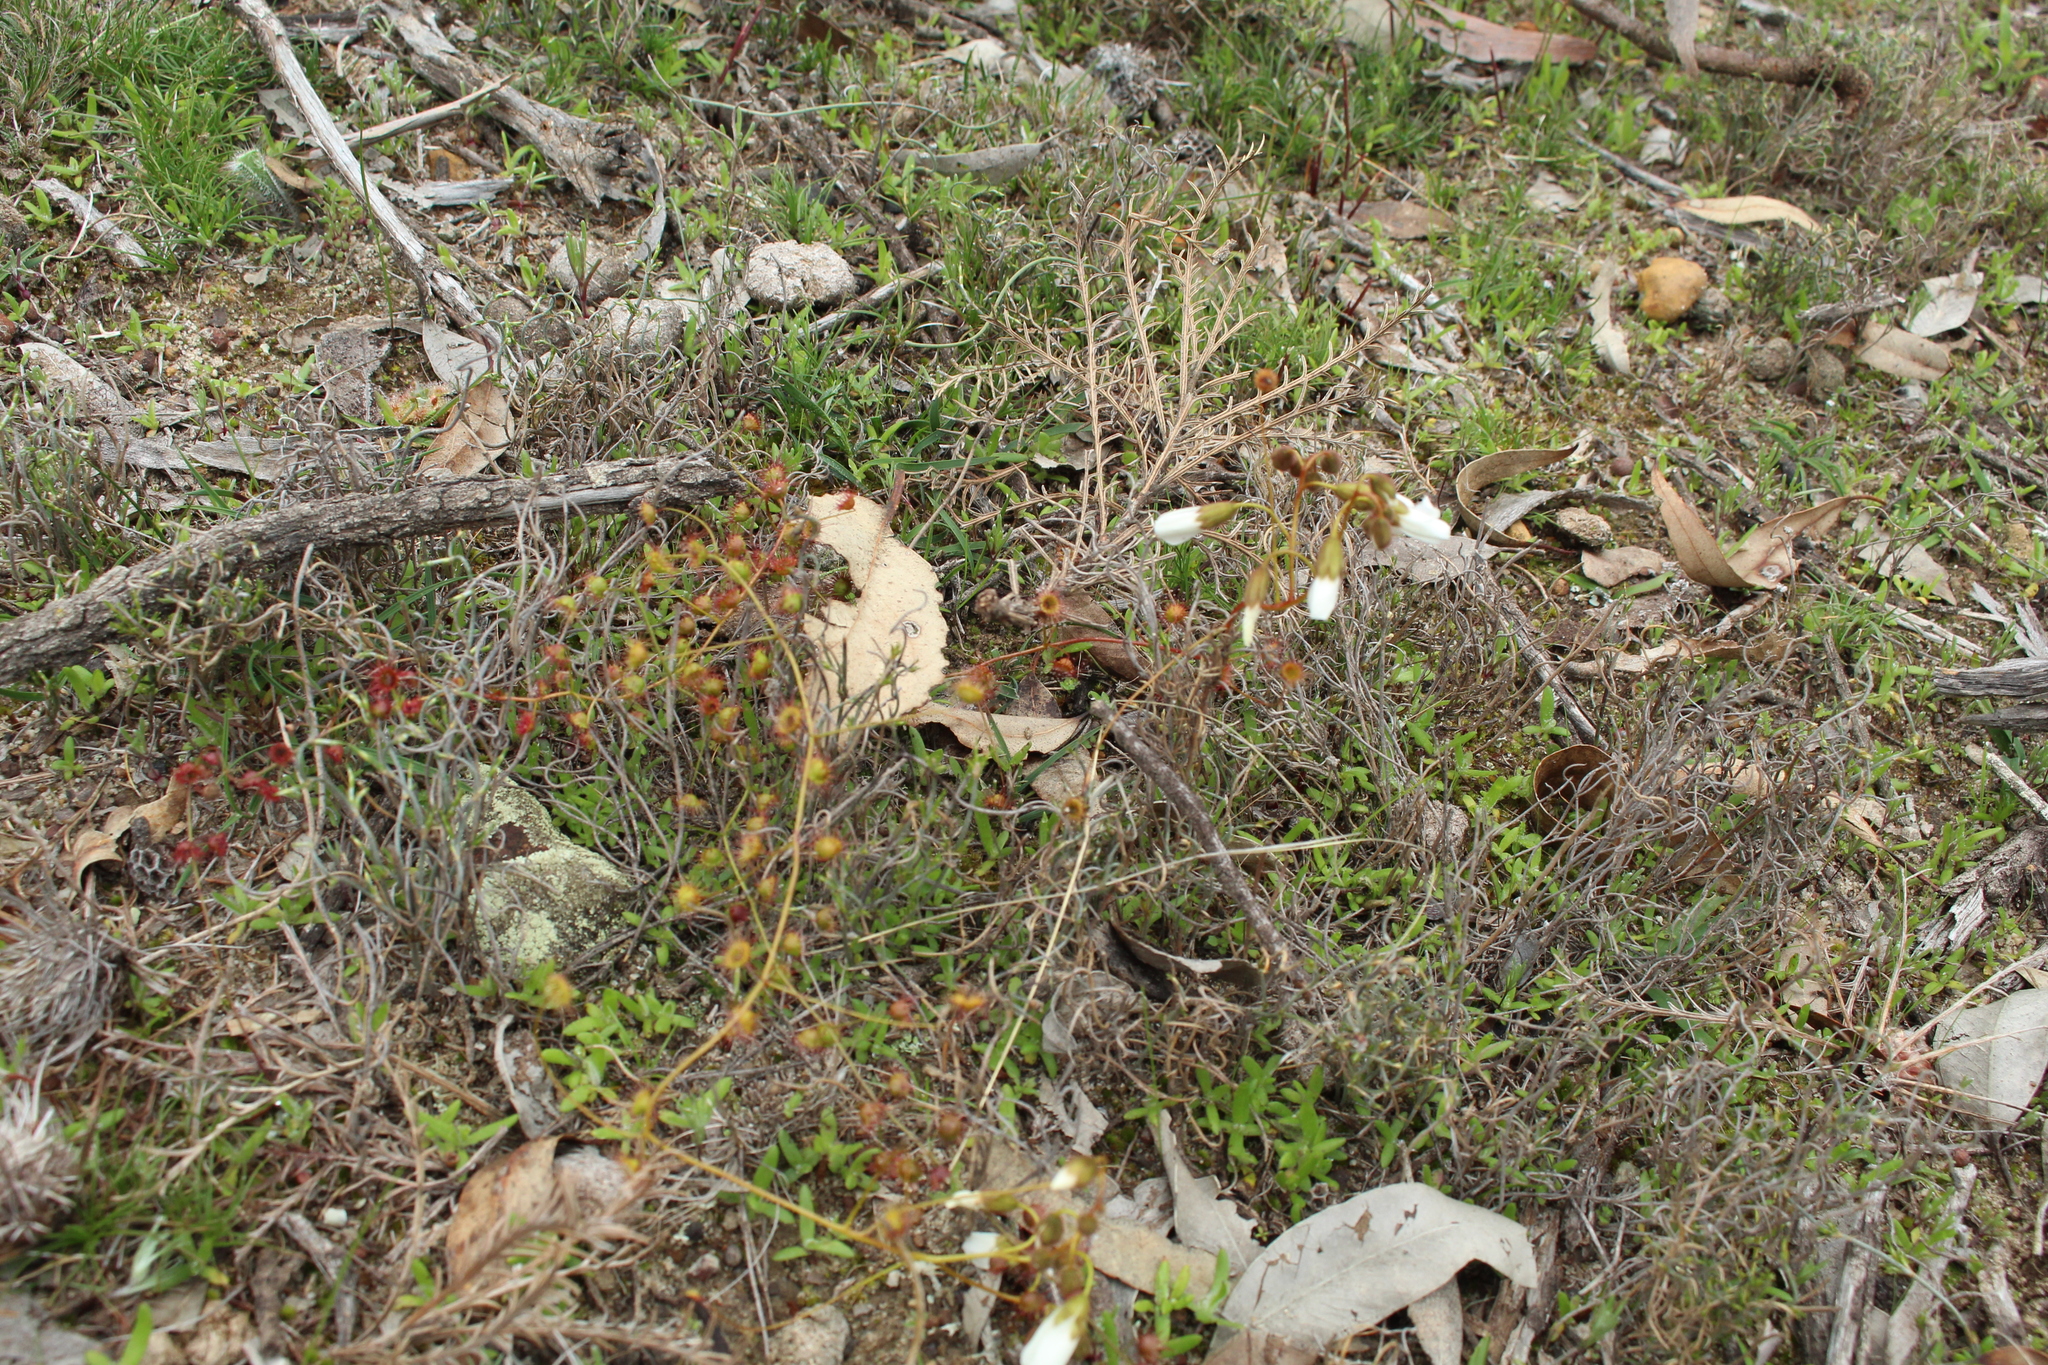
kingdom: Plantae
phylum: Tracheophyta
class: Magnoliopsida
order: Caryophyllales
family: Droseraceae
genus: Drosera
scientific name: Drosera macrantha
